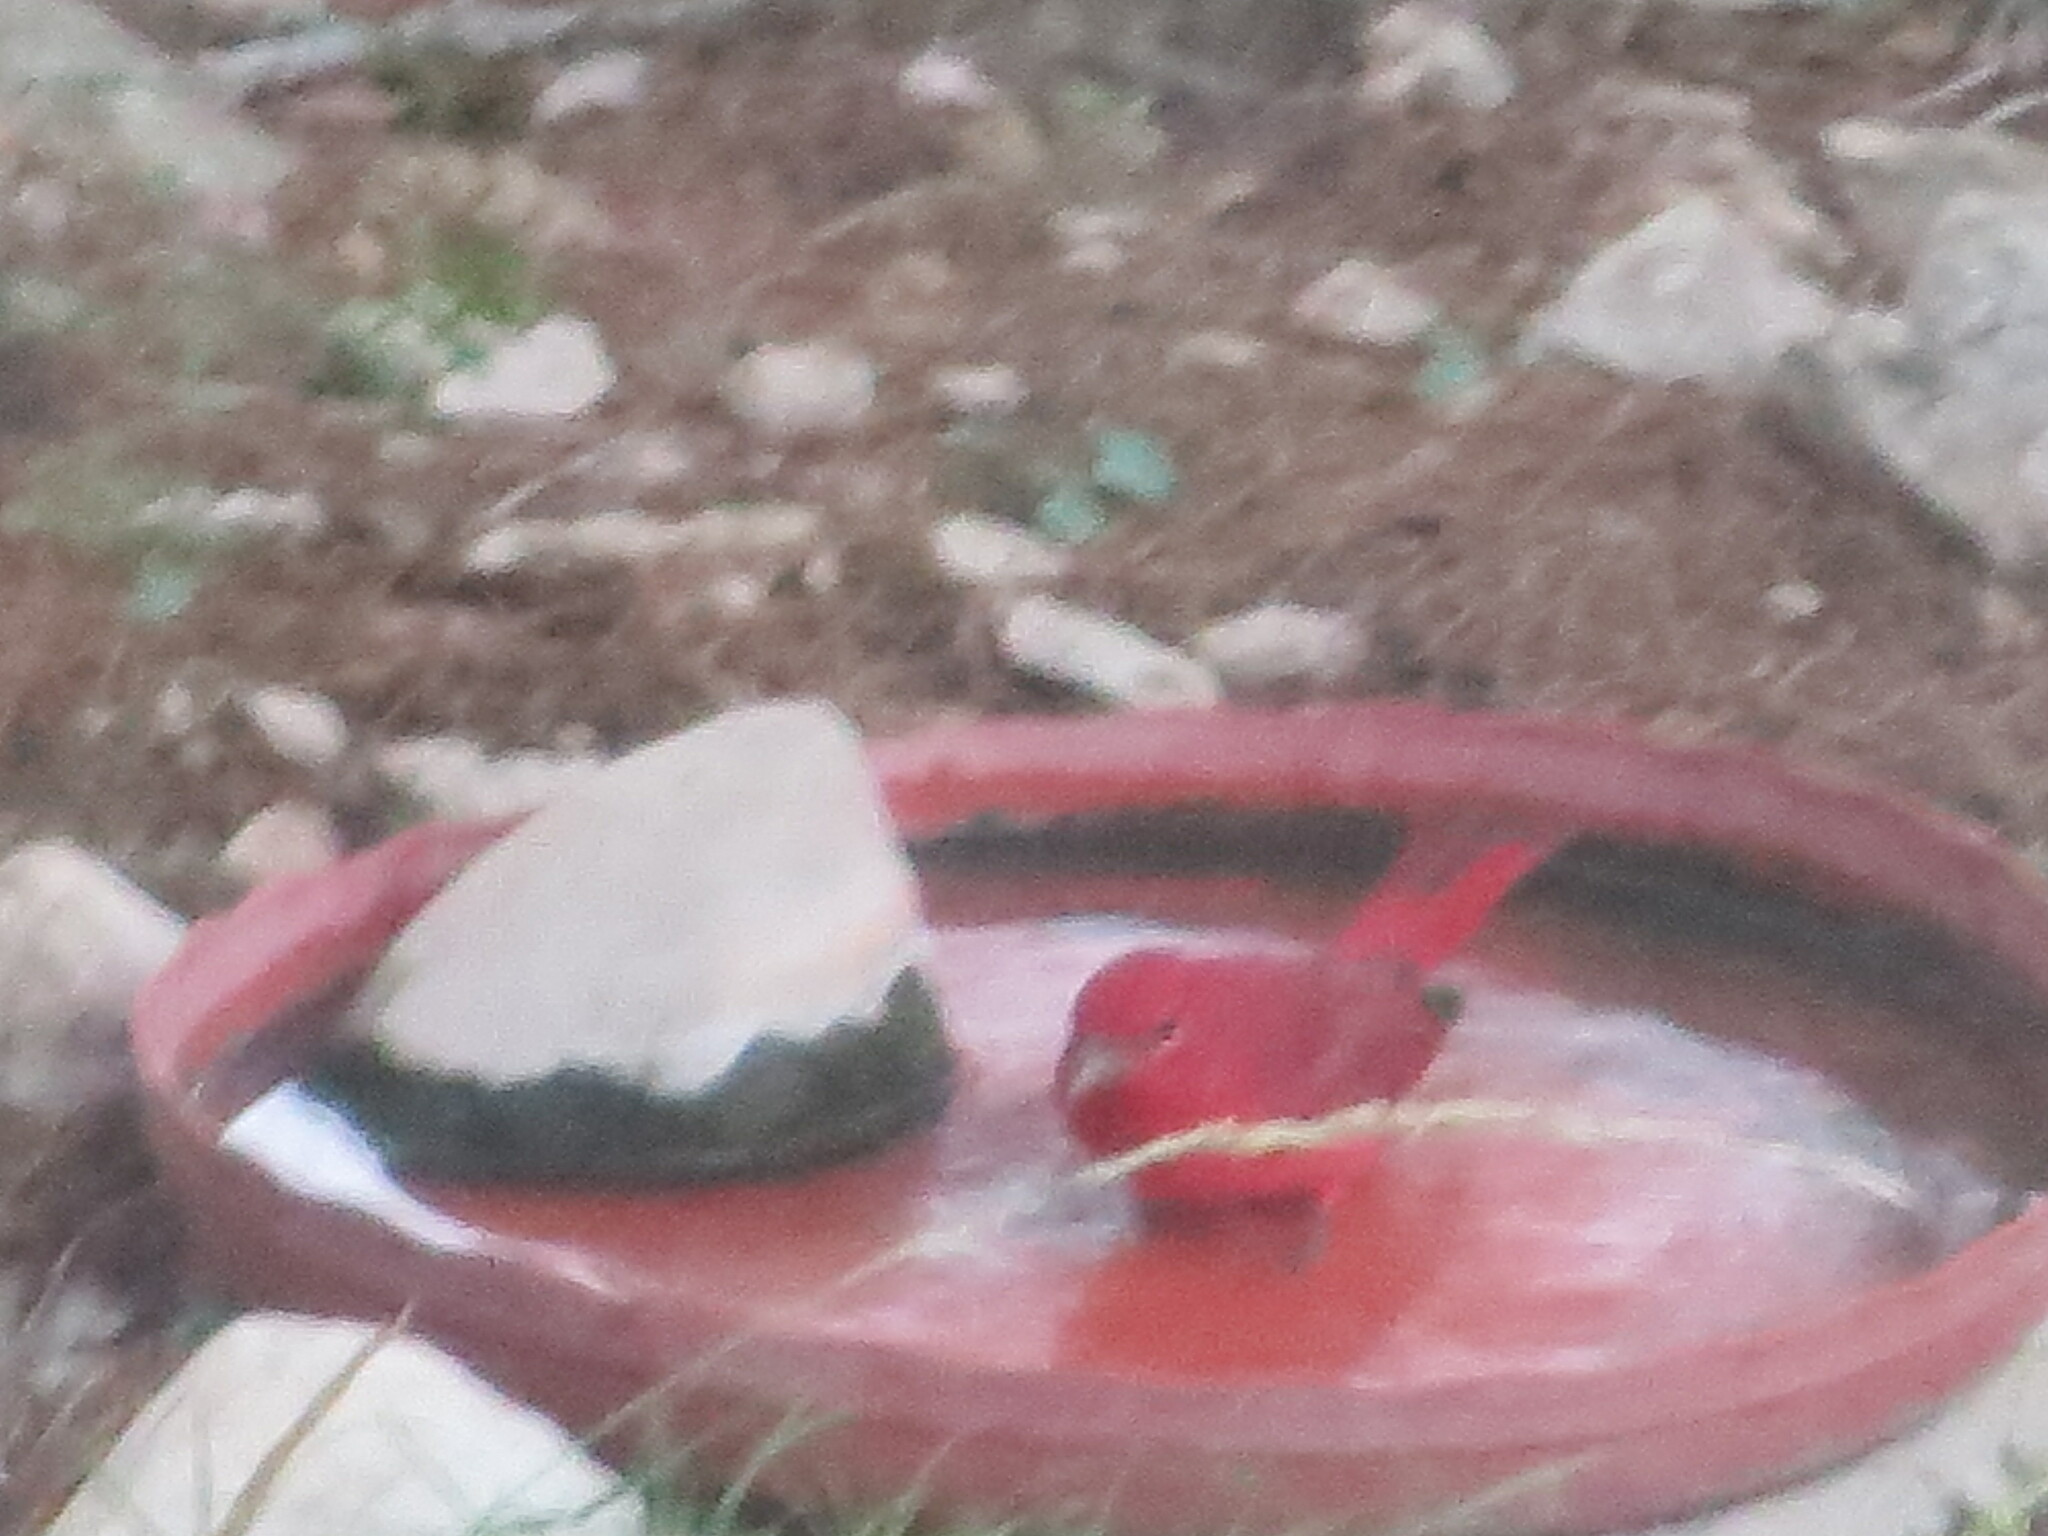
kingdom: Animalia
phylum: Chordata
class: Aves
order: Passeriformes
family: Cardinalidae
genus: Piranga
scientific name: Piranga rubra
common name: Summer tanager
